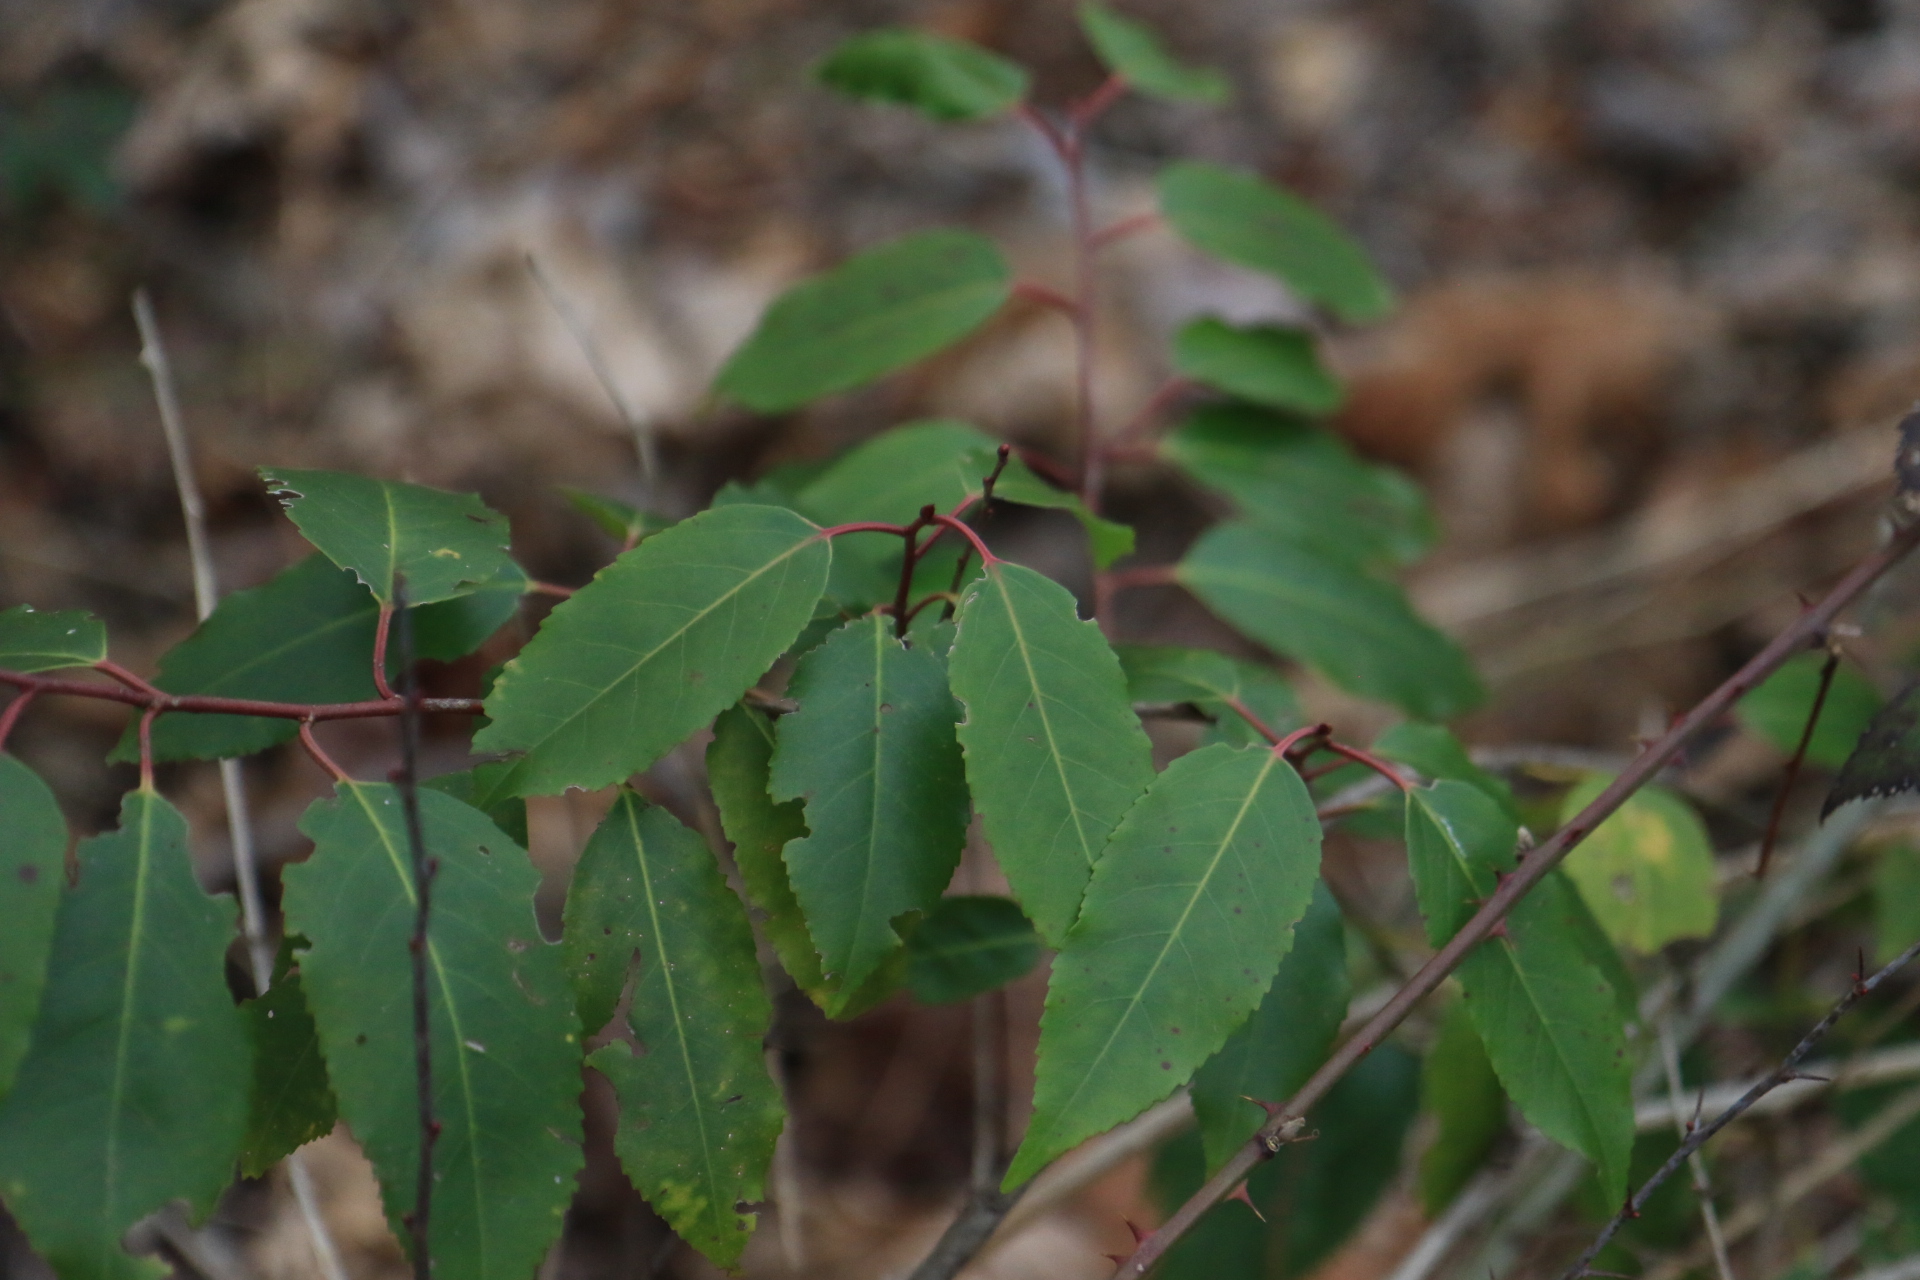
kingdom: Plantae
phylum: Tracheophyta
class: Magnoliopsida
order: Rosales
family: Rosaceae
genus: Prunus
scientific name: Prunus lusitanica
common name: Portugal laurel
